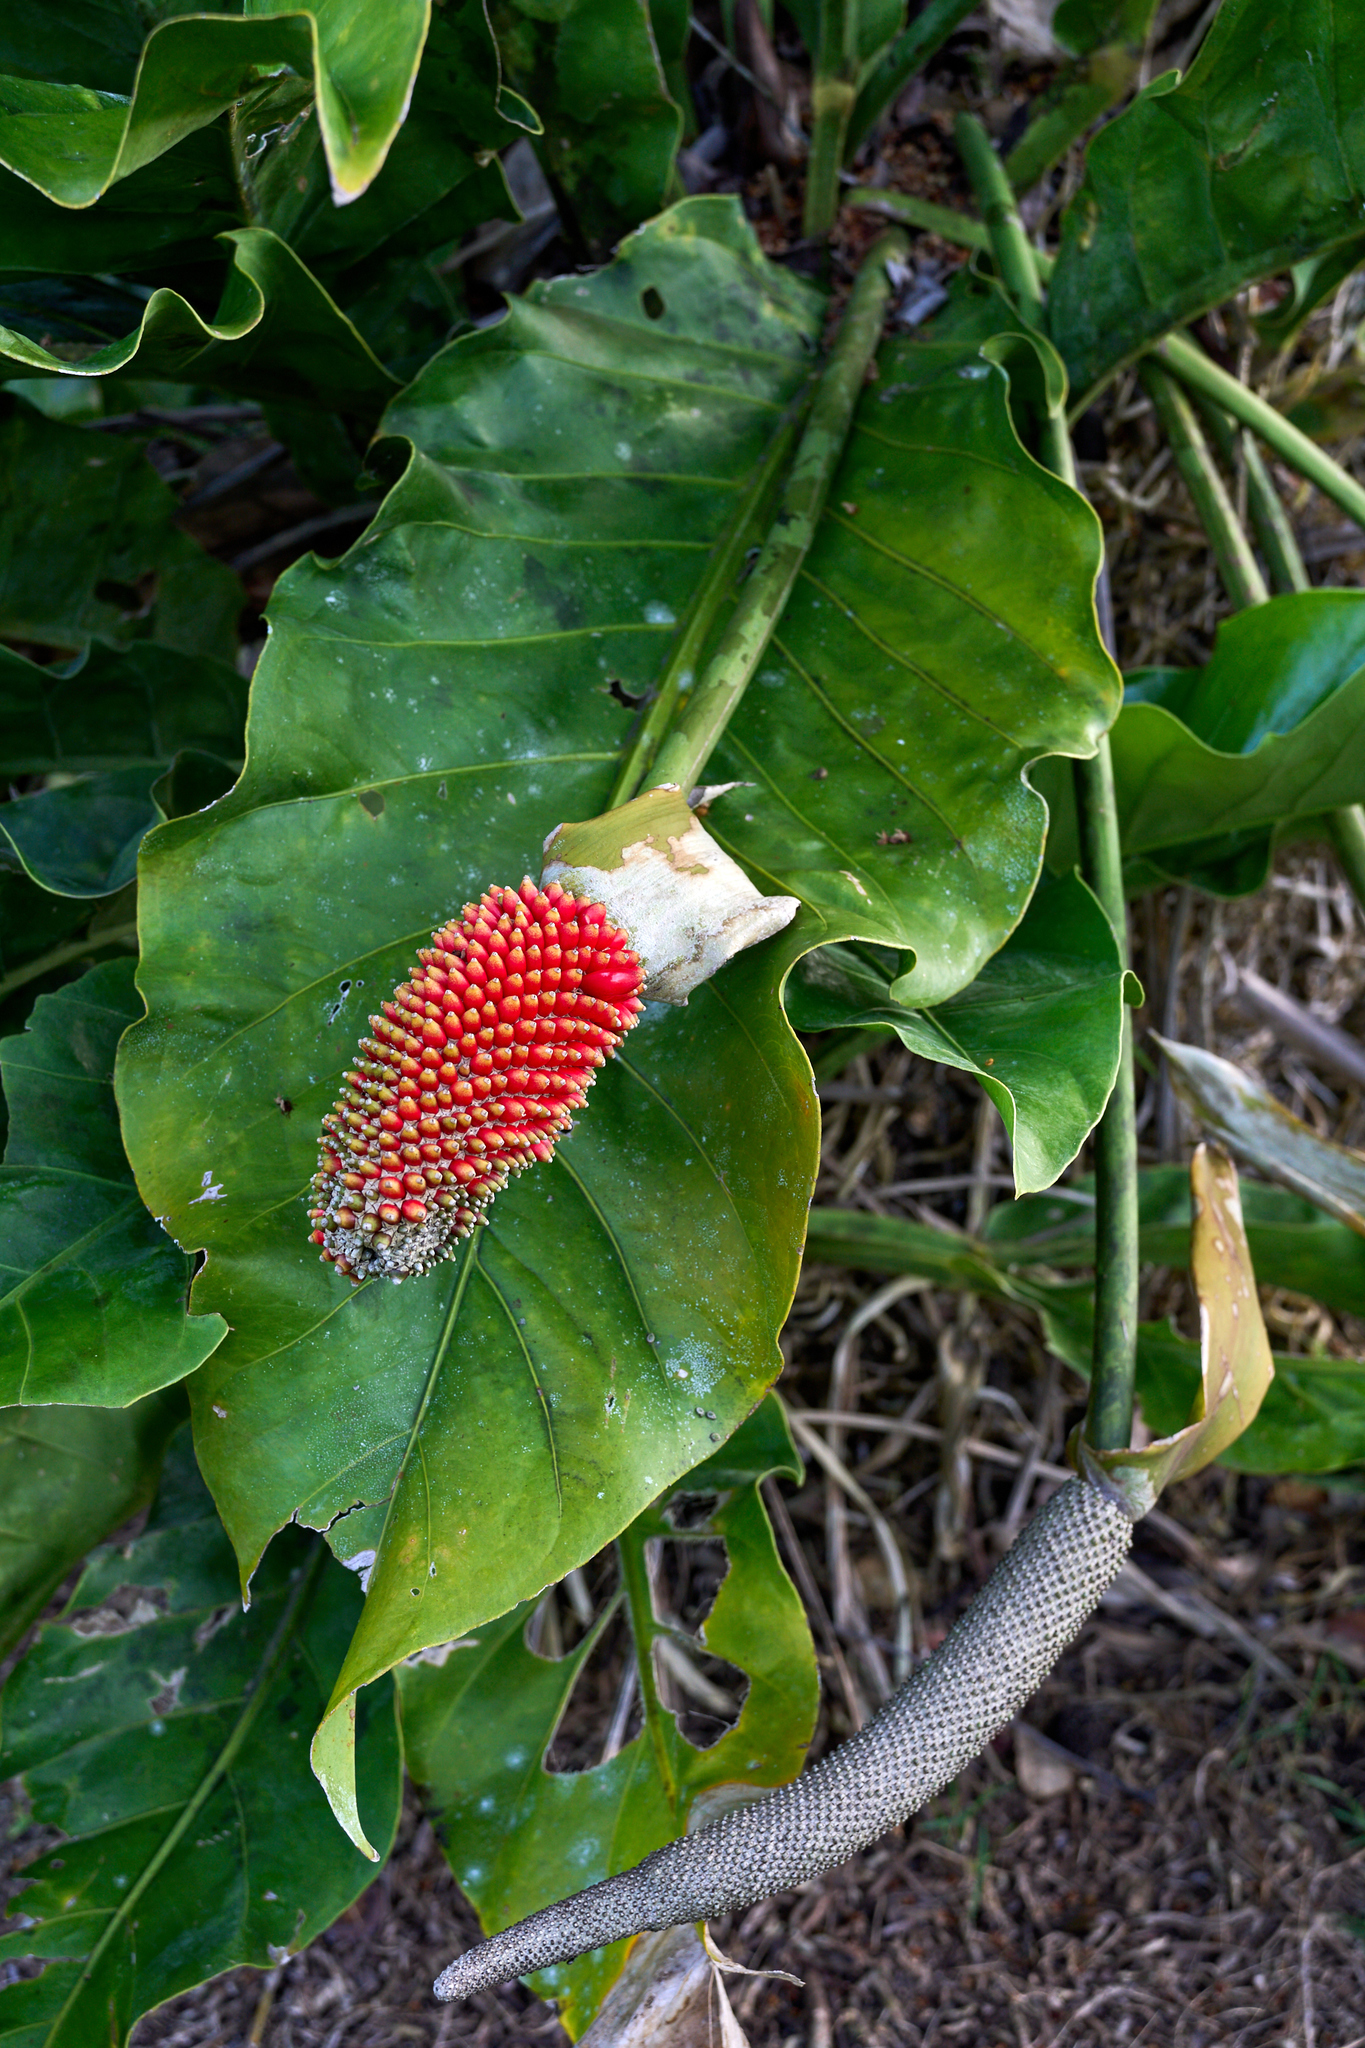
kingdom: Plantae
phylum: Tracheophyta
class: Liliopsida
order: Alismatales
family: Araceae
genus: Anthurium
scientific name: Anthurium schlechtendalii
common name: Laceleaf
